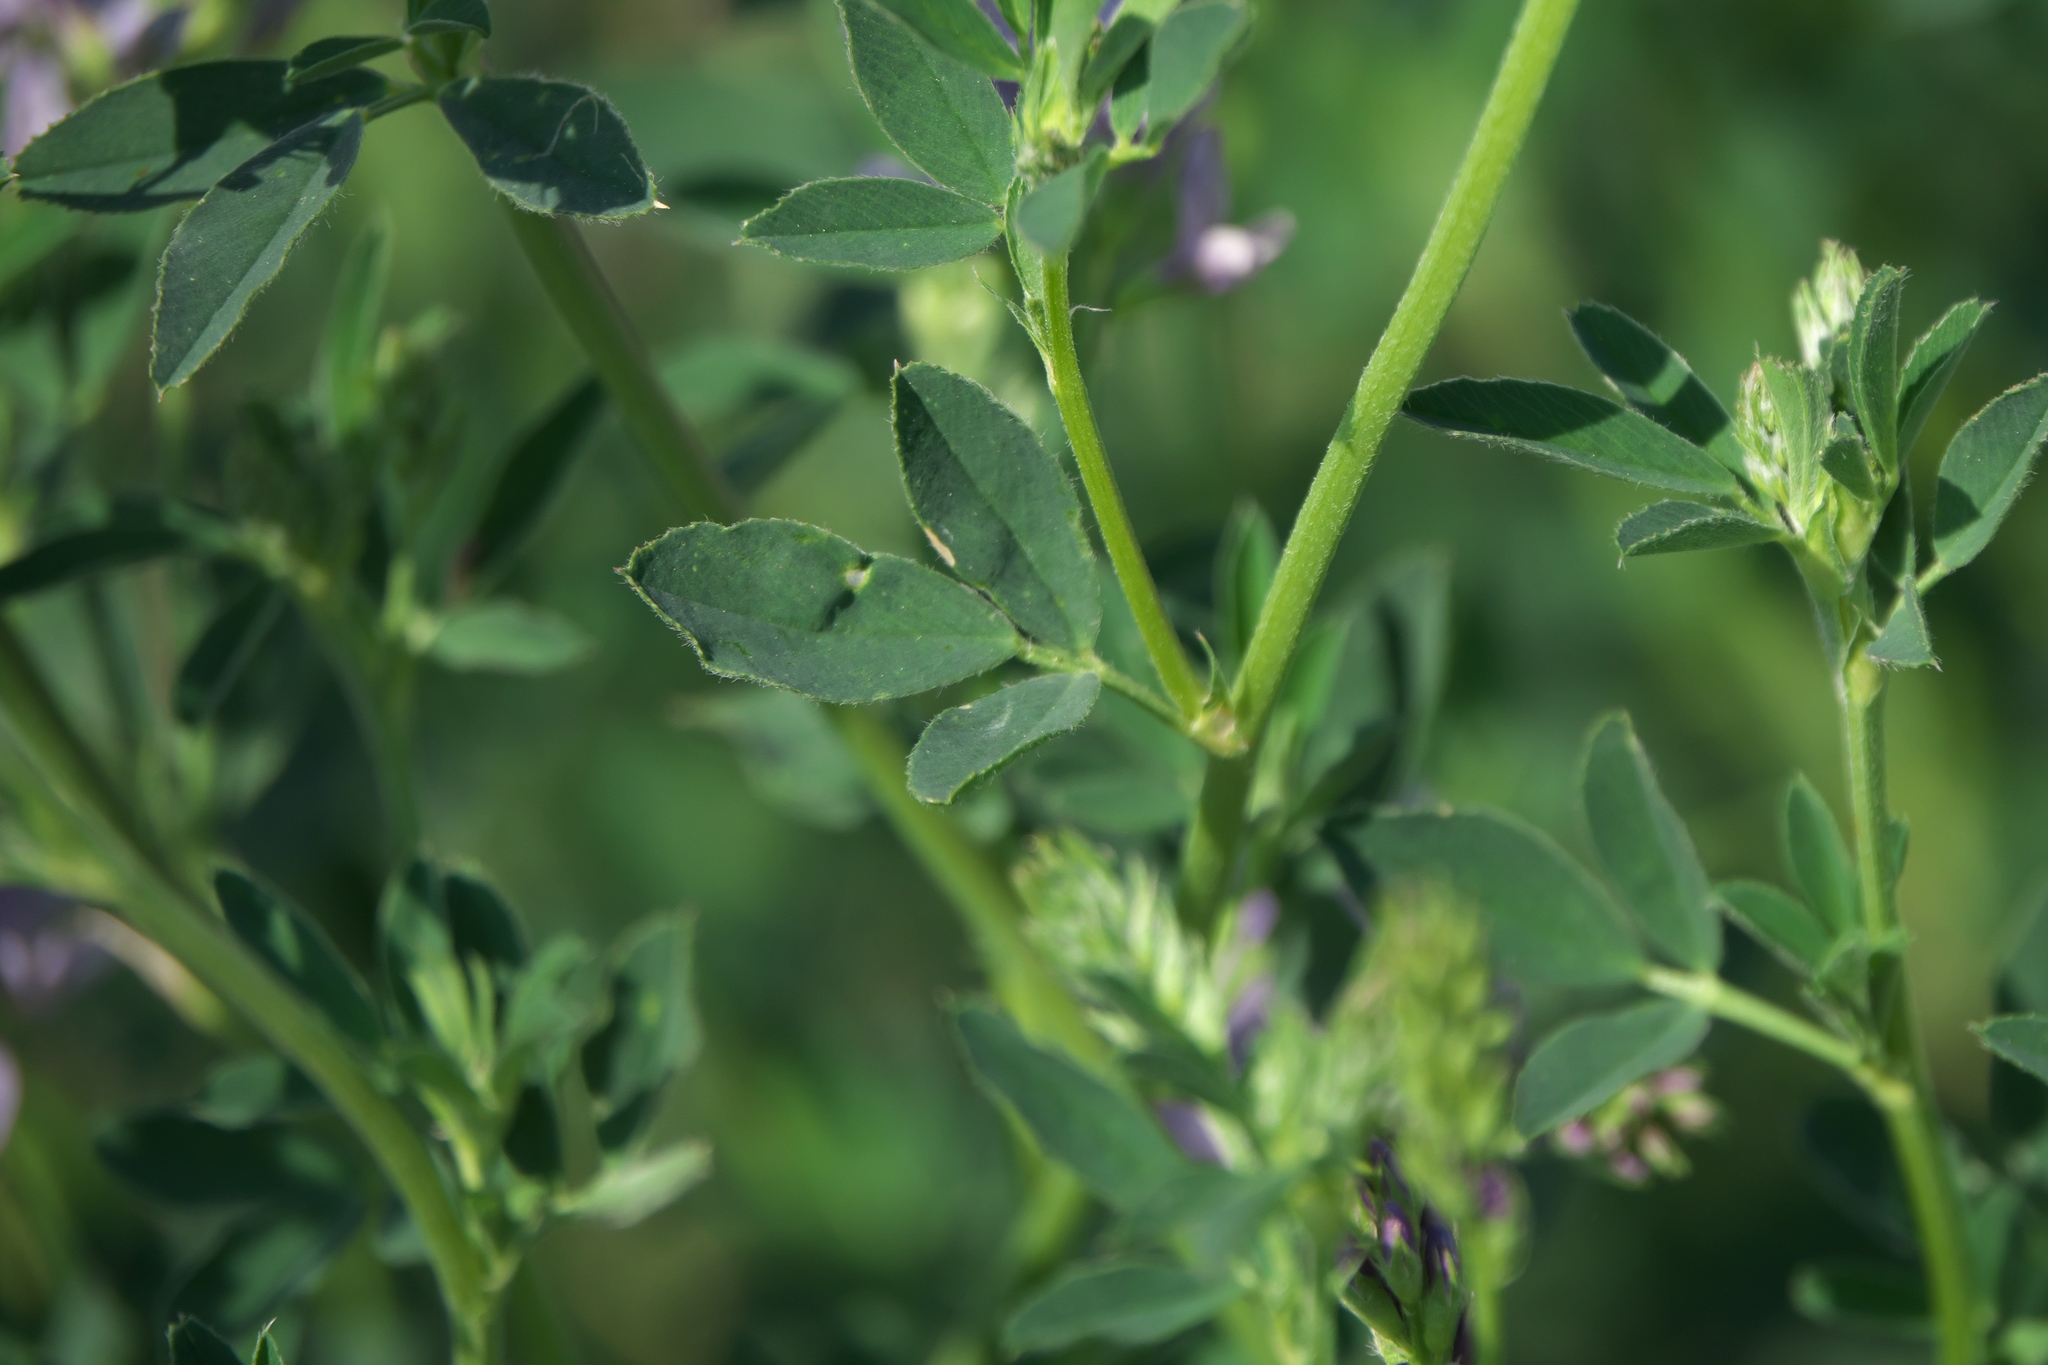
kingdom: Plantae
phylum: Tracheophyta
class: Magnoliopsida
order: Fabales
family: Fabaceae
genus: Medicago
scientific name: Medicago sativa
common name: Alfalfa
